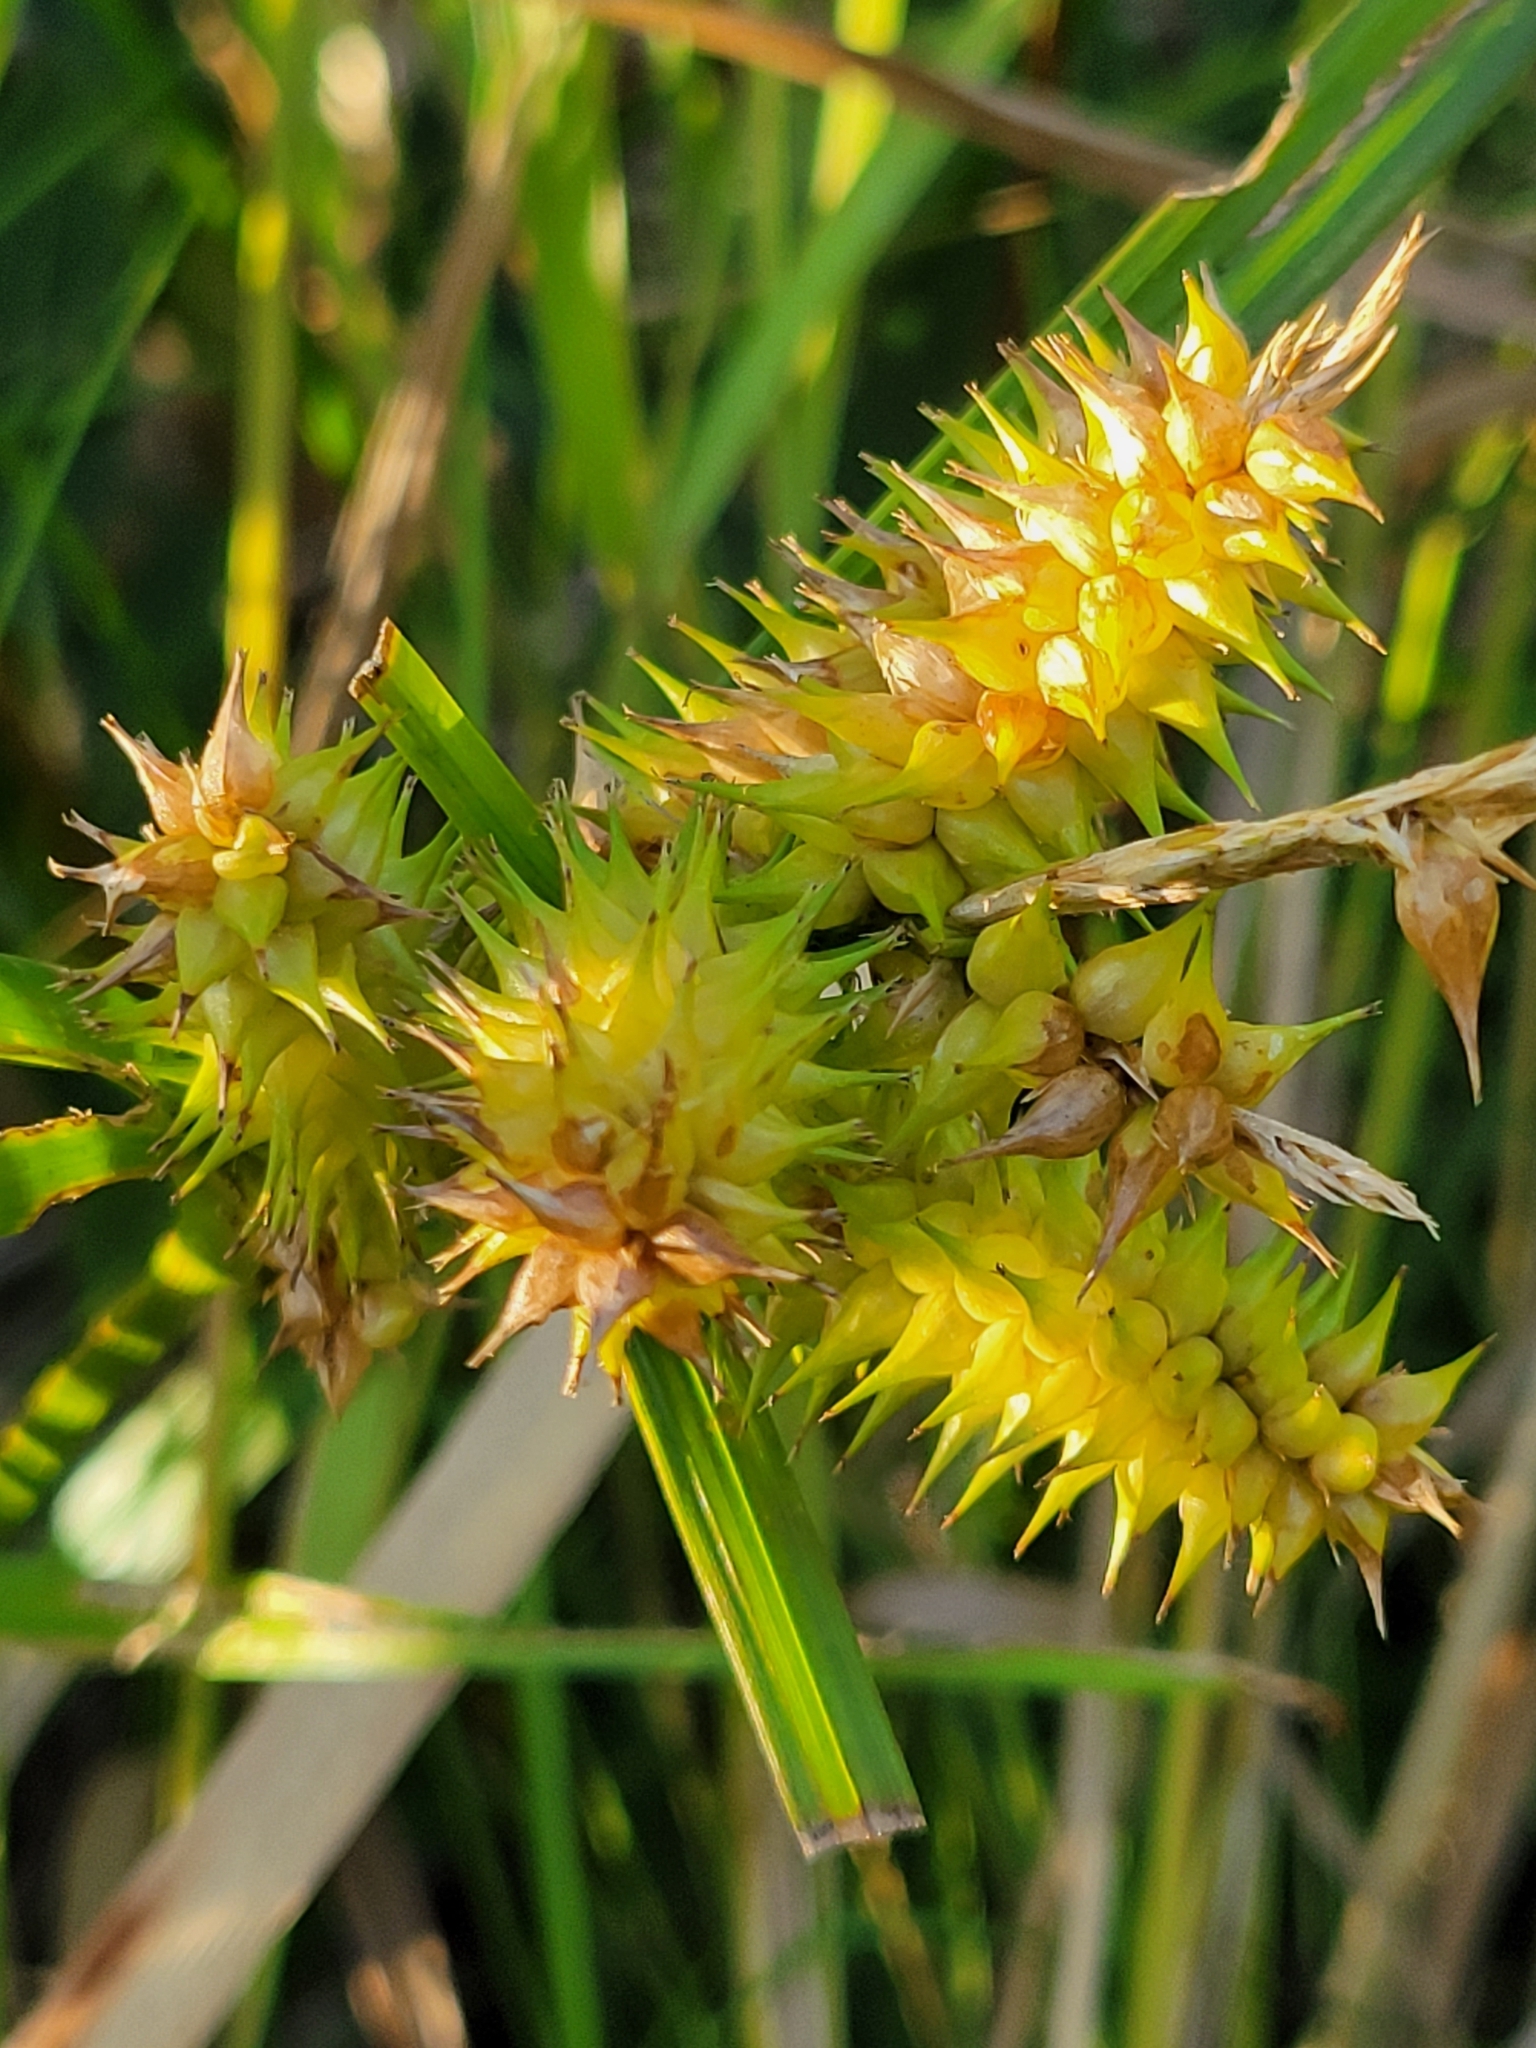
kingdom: Plantae
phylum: Tracheophyta
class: Liliopsida
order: Poales
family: Cyperaceae
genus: Carex
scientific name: Carex retrorsa
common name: Knot-sheath sedge
